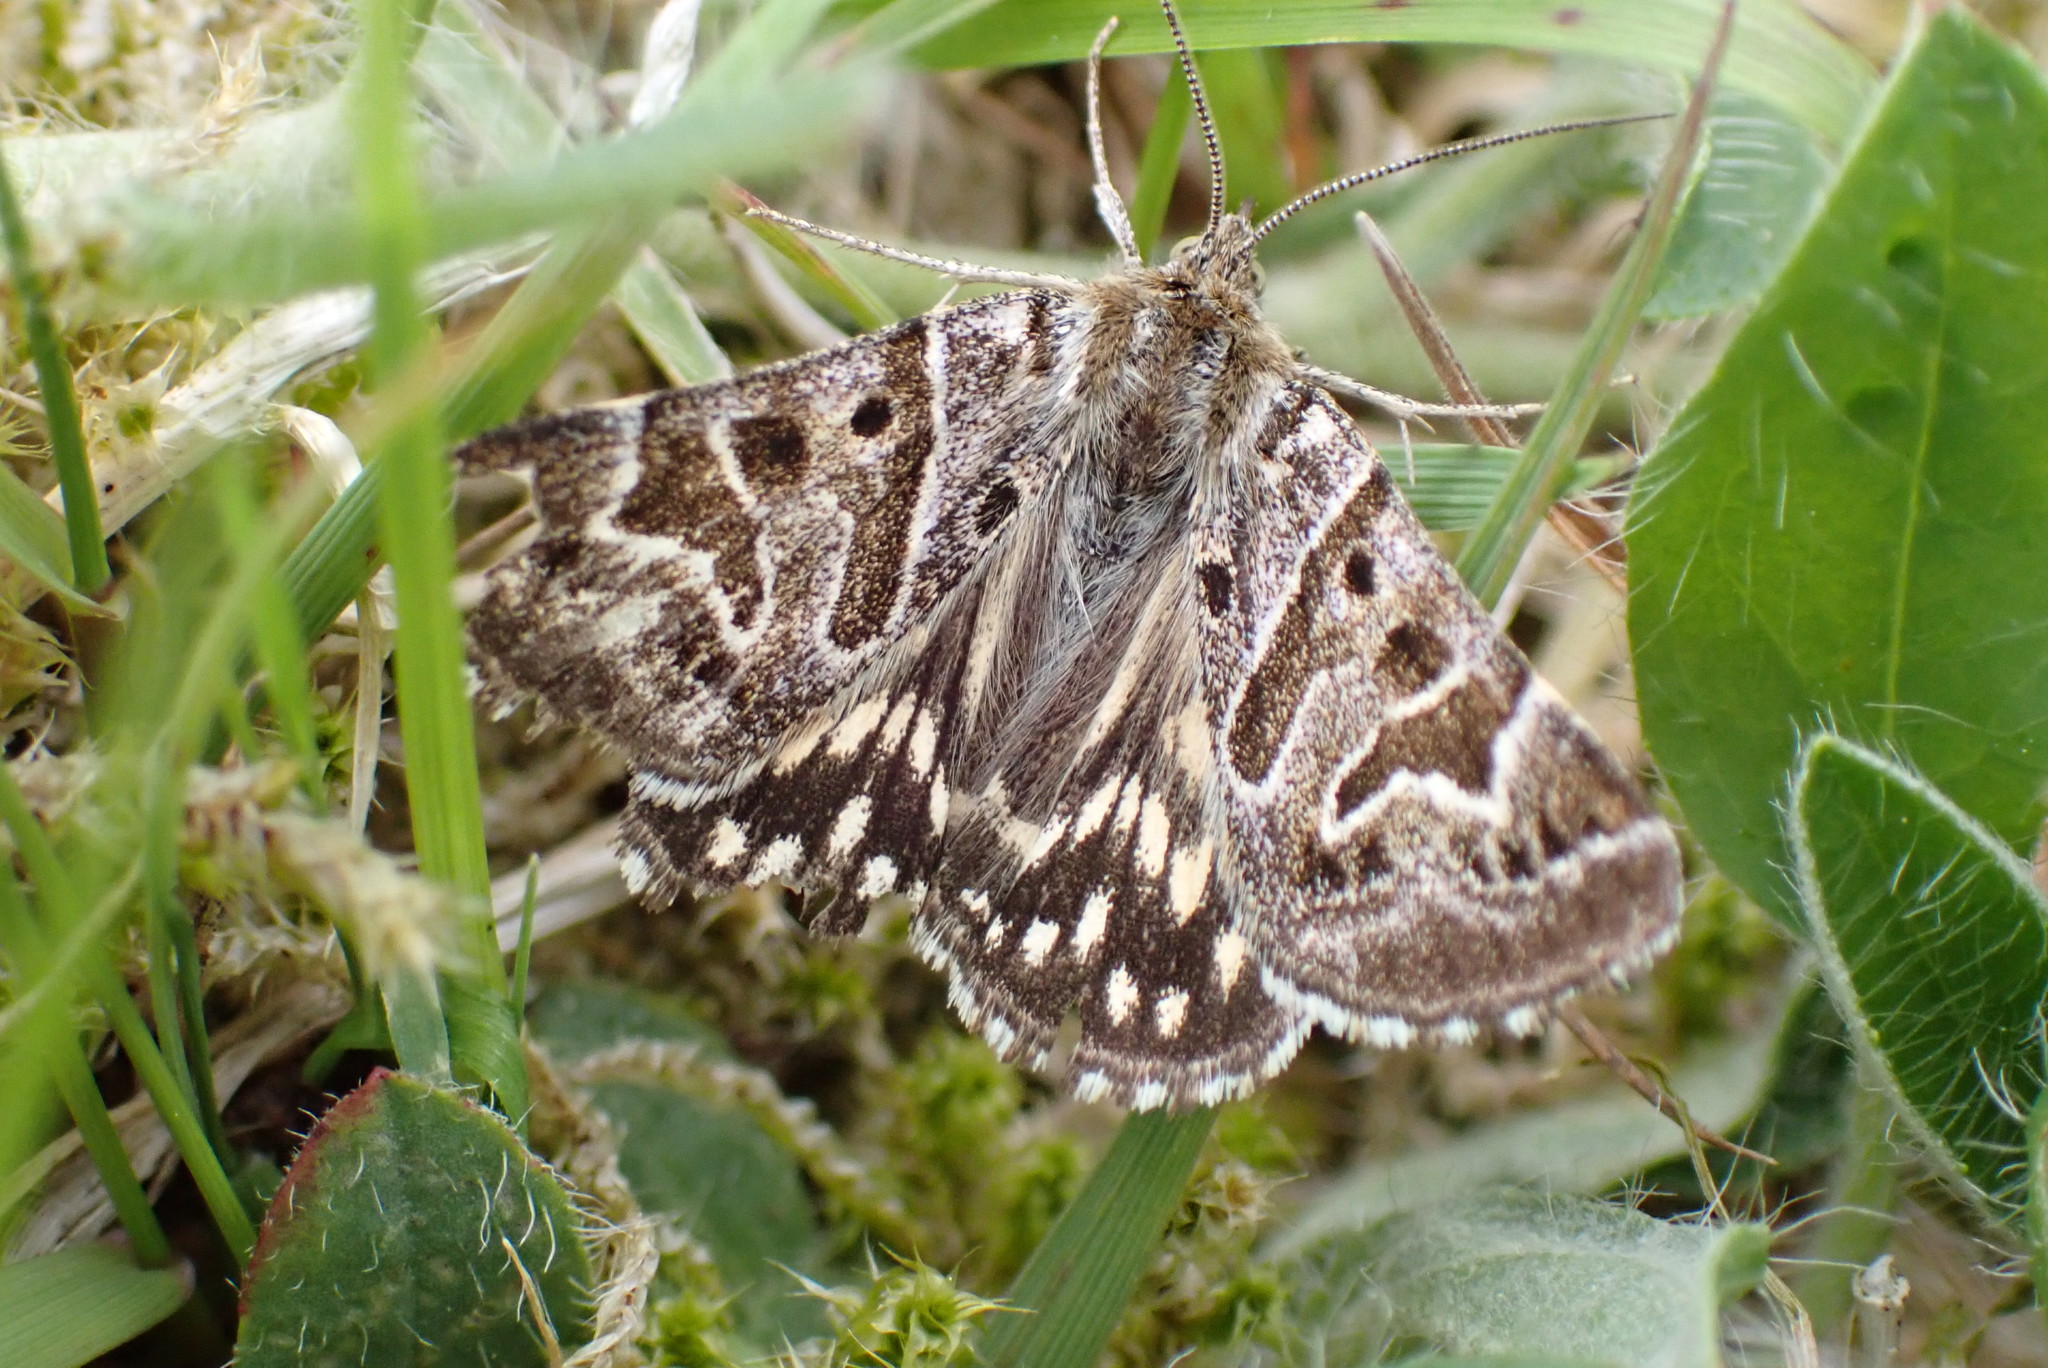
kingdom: Animalia
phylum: Arthropoda
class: Insecta
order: Lepidoptera
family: Erebidae
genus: Callistege
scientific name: Callistege mi
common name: Mother shipton
